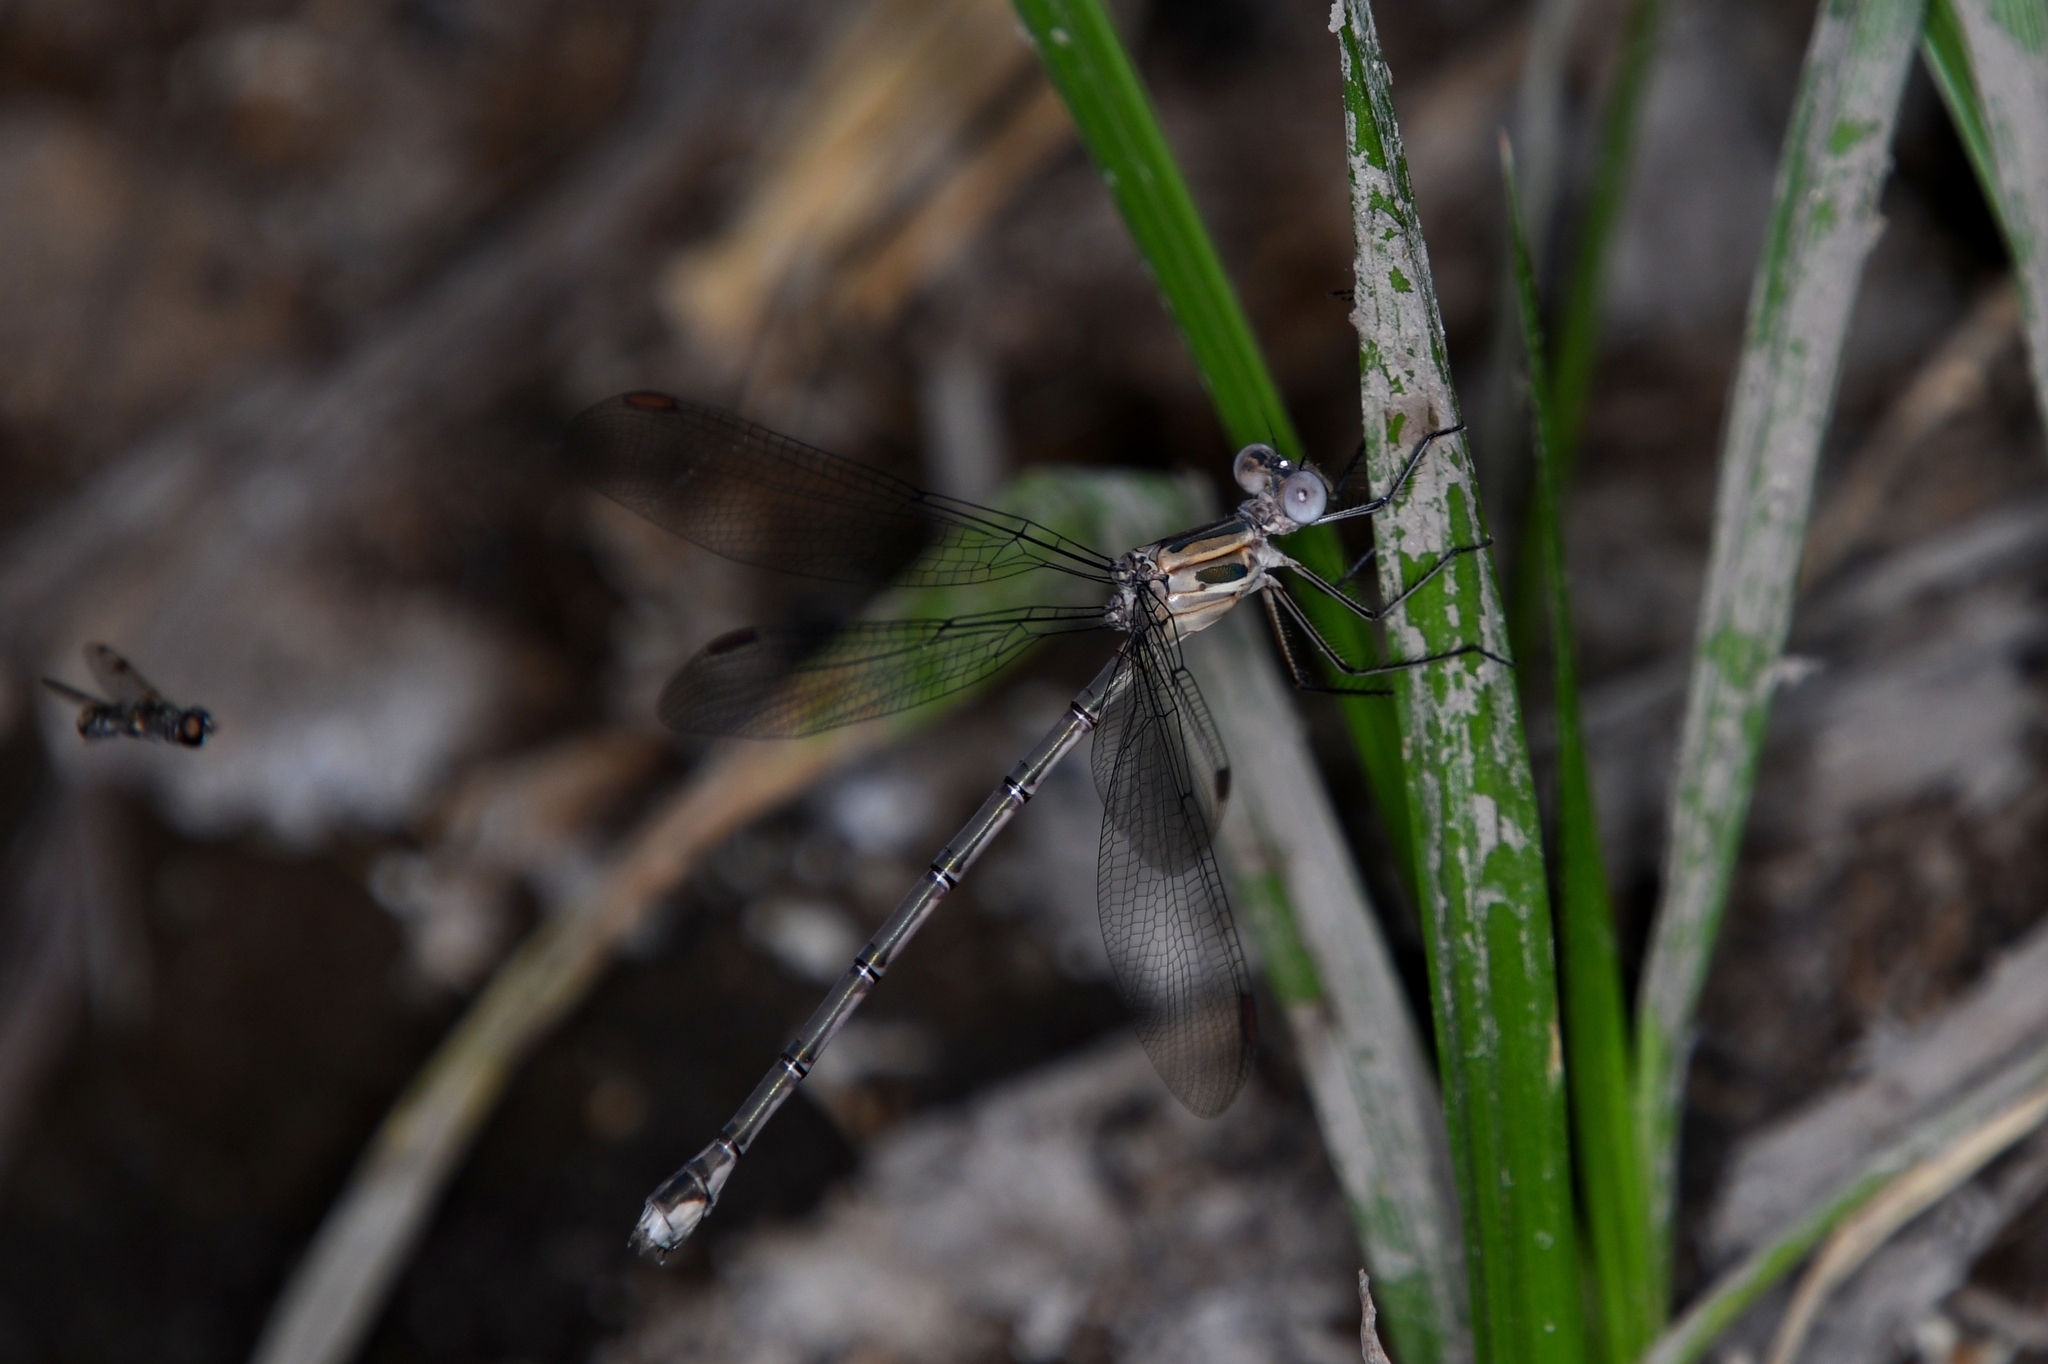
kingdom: Animalia
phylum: Arthropoda
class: Insecta
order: Odonata
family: Lestidae
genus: Archilestes
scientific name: Archilestes californicus
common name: California spreadwing
